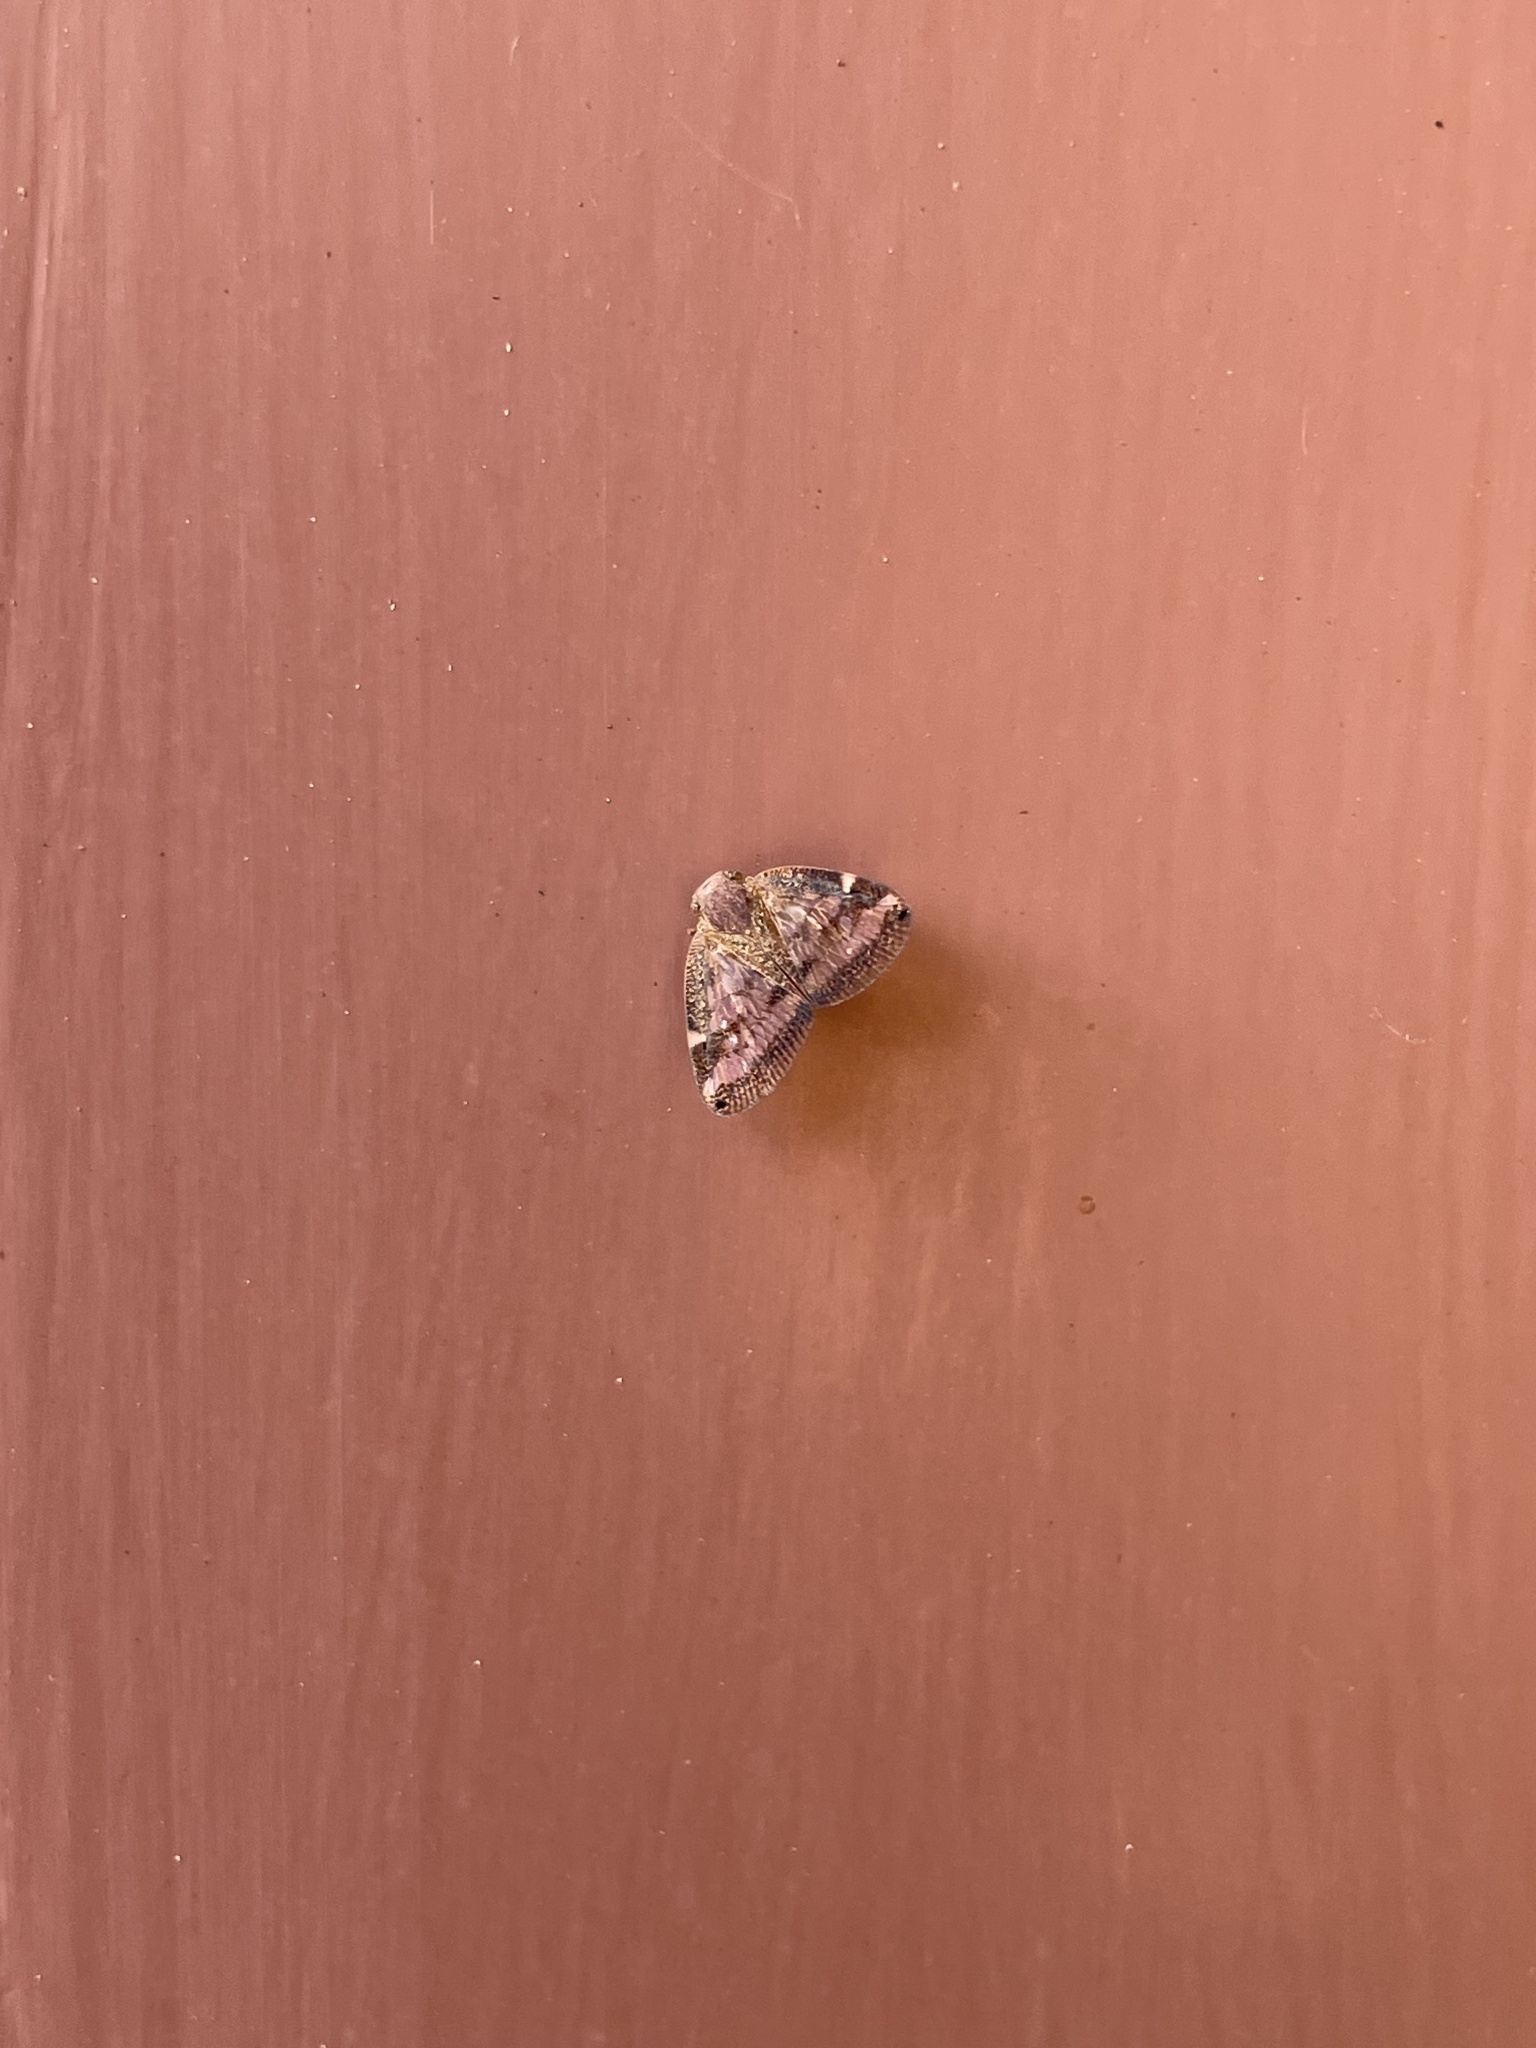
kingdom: Animalia
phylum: Arthropoda
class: Insecta
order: Hemiptera
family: Ricaniidae
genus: Scolypopa
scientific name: Scolypopa australis
